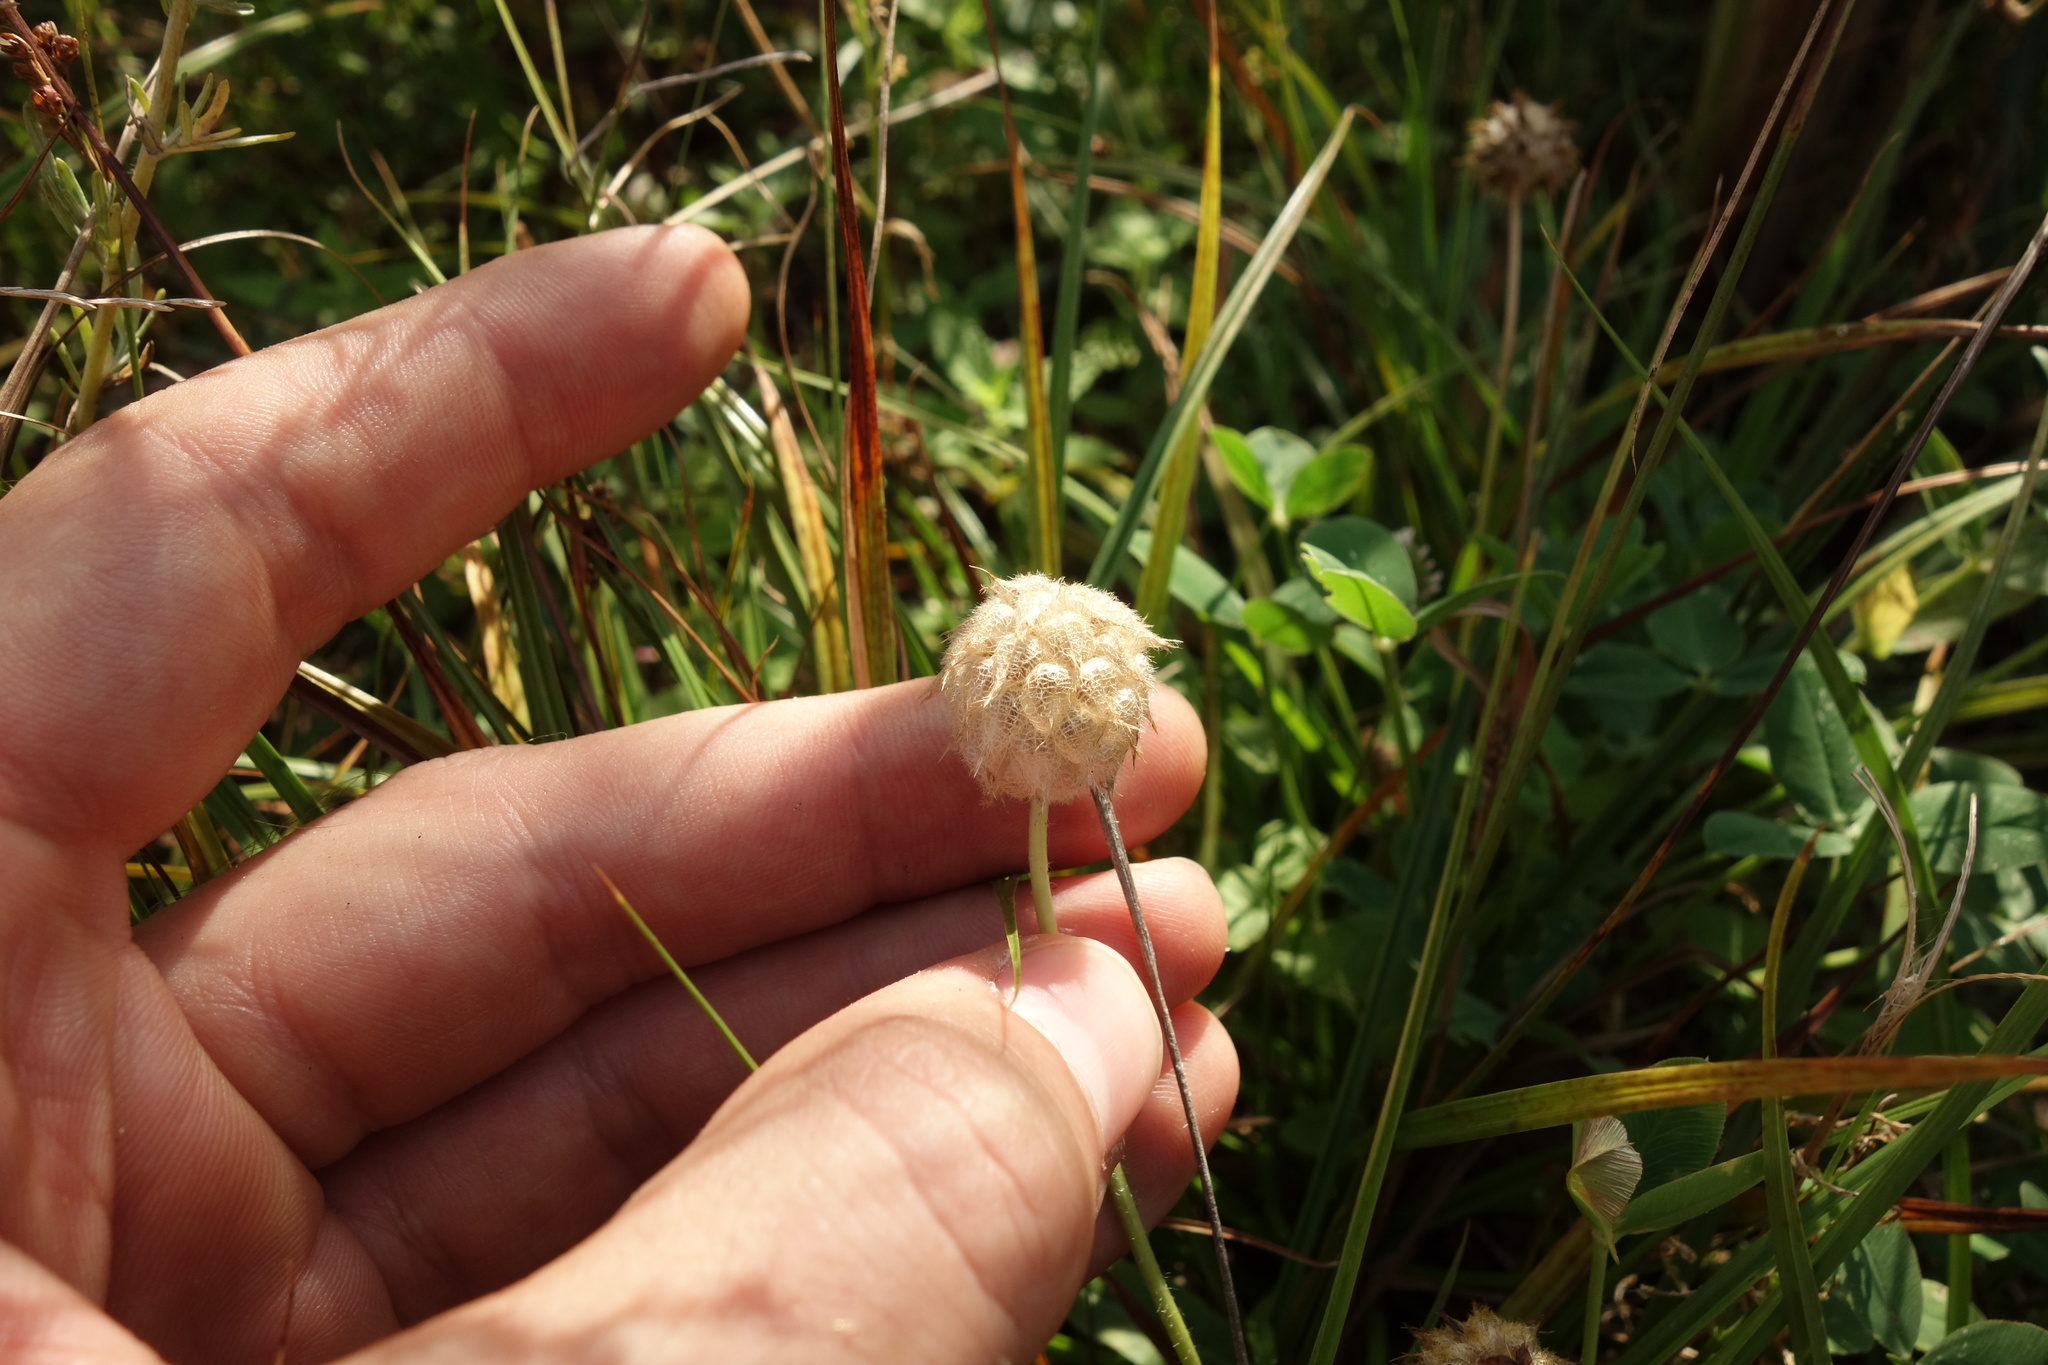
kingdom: Plantae
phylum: Tracheophyta
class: Magnoliopsida
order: Fabales
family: Fabaceae
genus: Trifolium
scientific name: Trifolium fragiferum
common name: Strawberry clover
